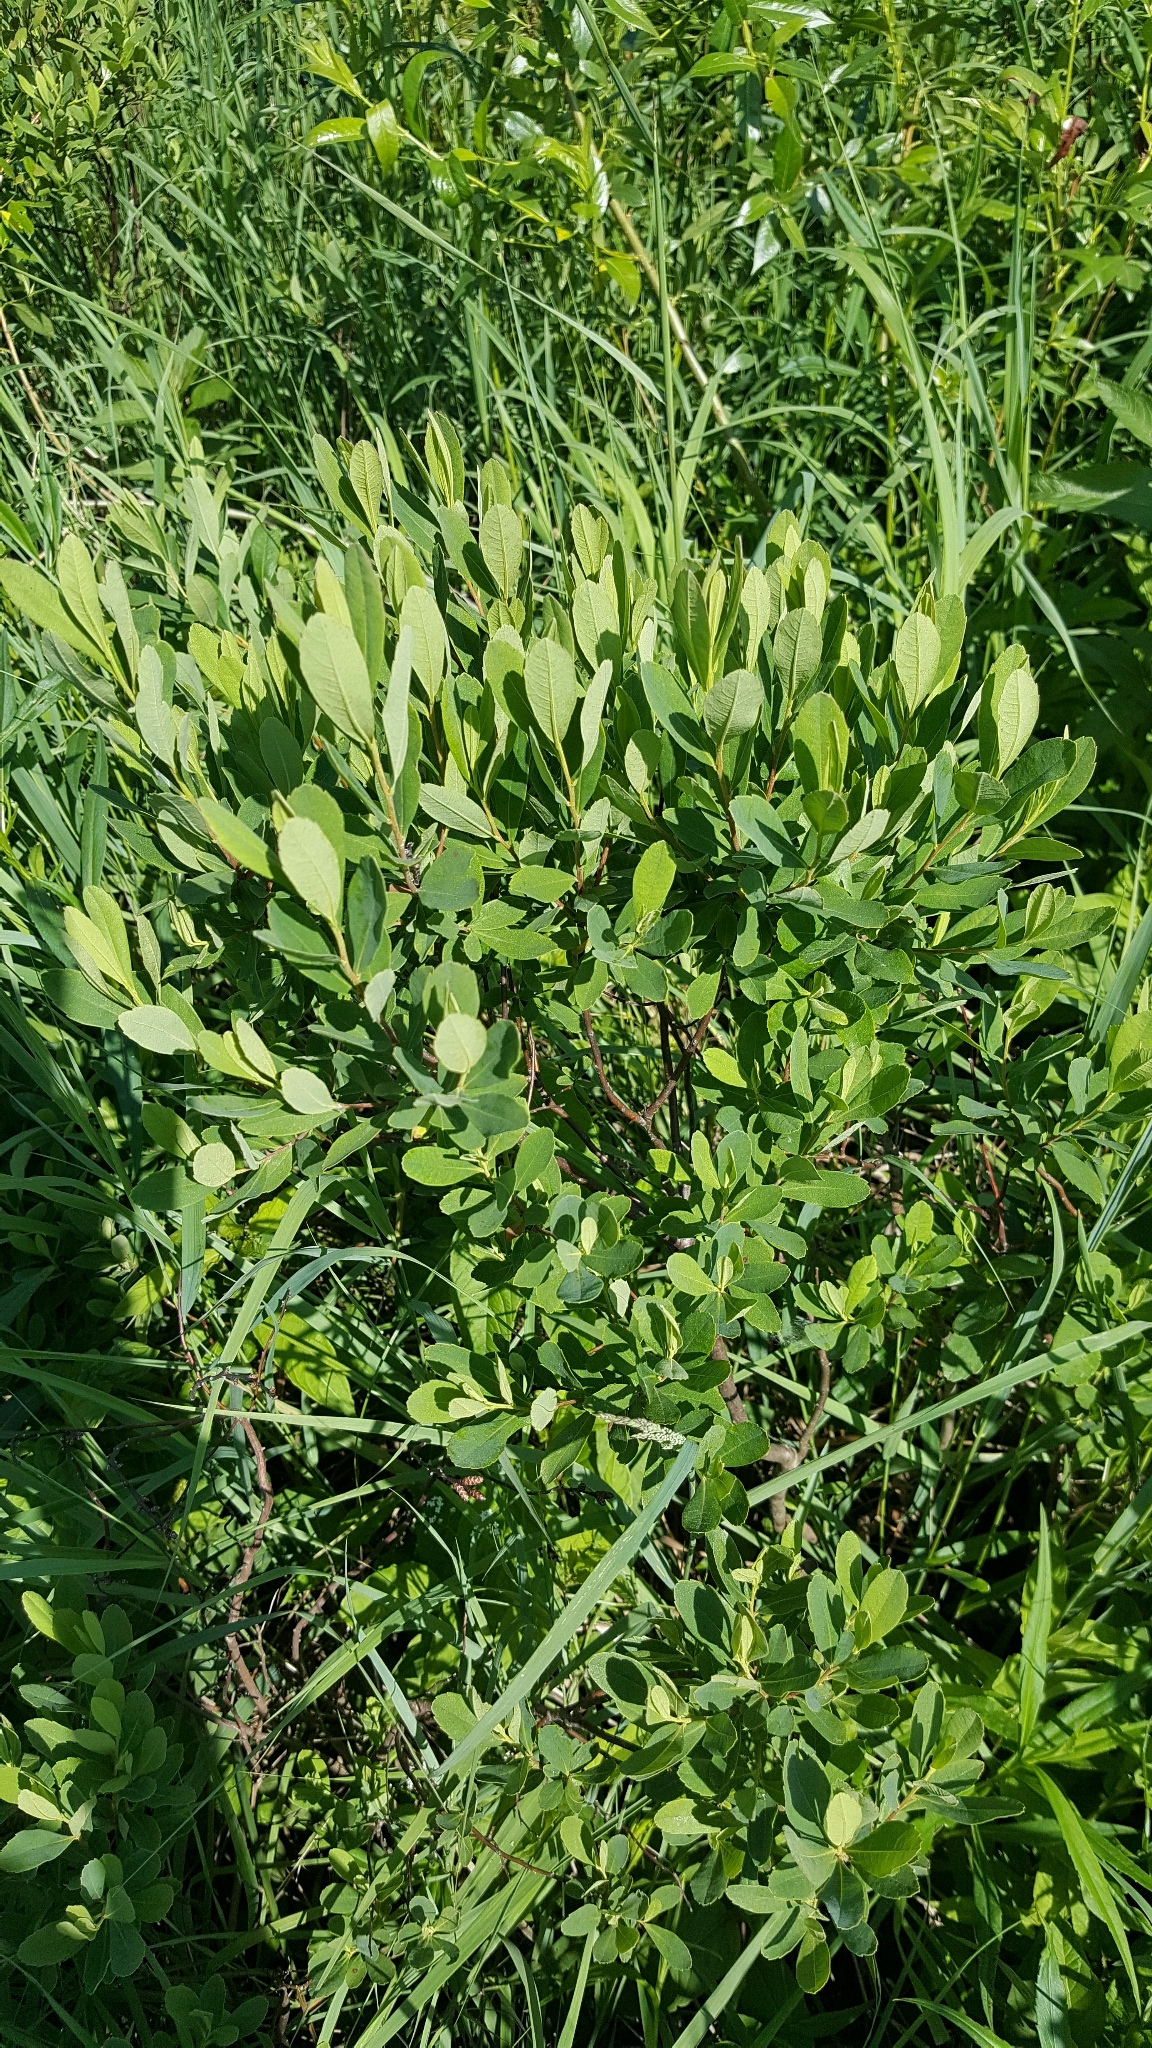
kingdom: Plantae
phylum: Tracheophyta
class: Magnoliopsida
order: Fagales
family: Myricaceae
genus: Myrica
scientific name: Myrica gale
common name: Sweet gale
